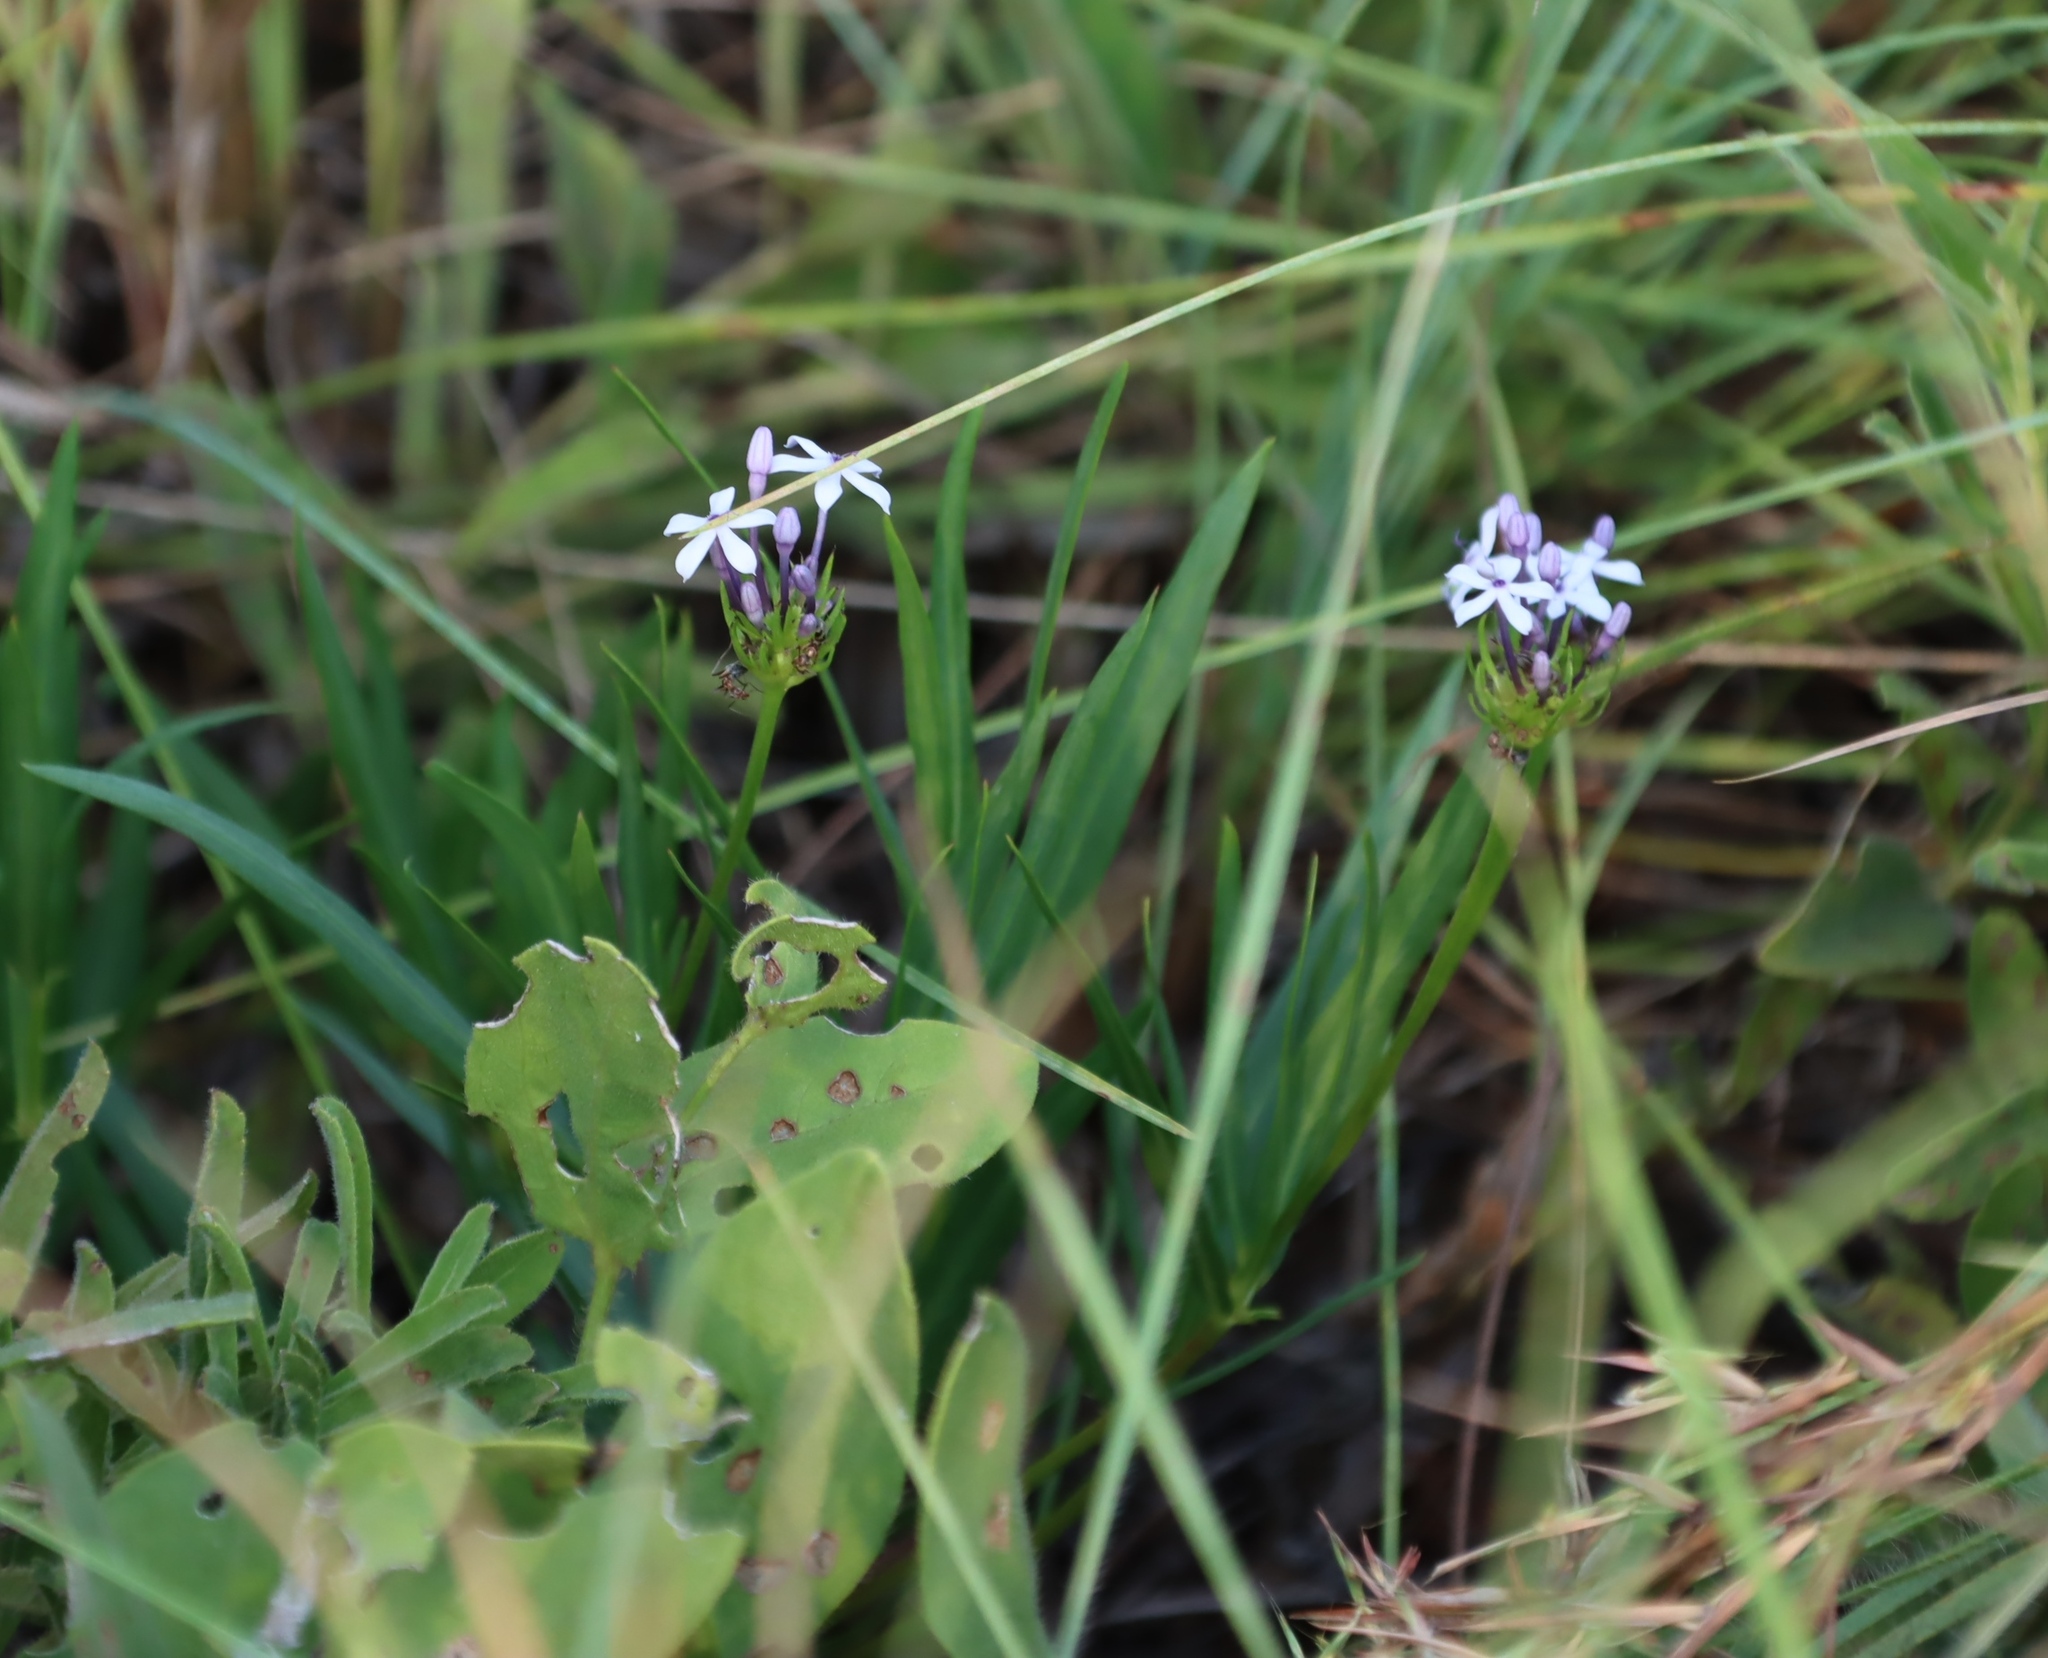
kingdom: Plantae
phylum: Tracheophyta
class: Magnoliopsida
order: Gentianales
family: Rubiaceae
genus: Pentanisia
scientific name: Pentanisia angustifolia
